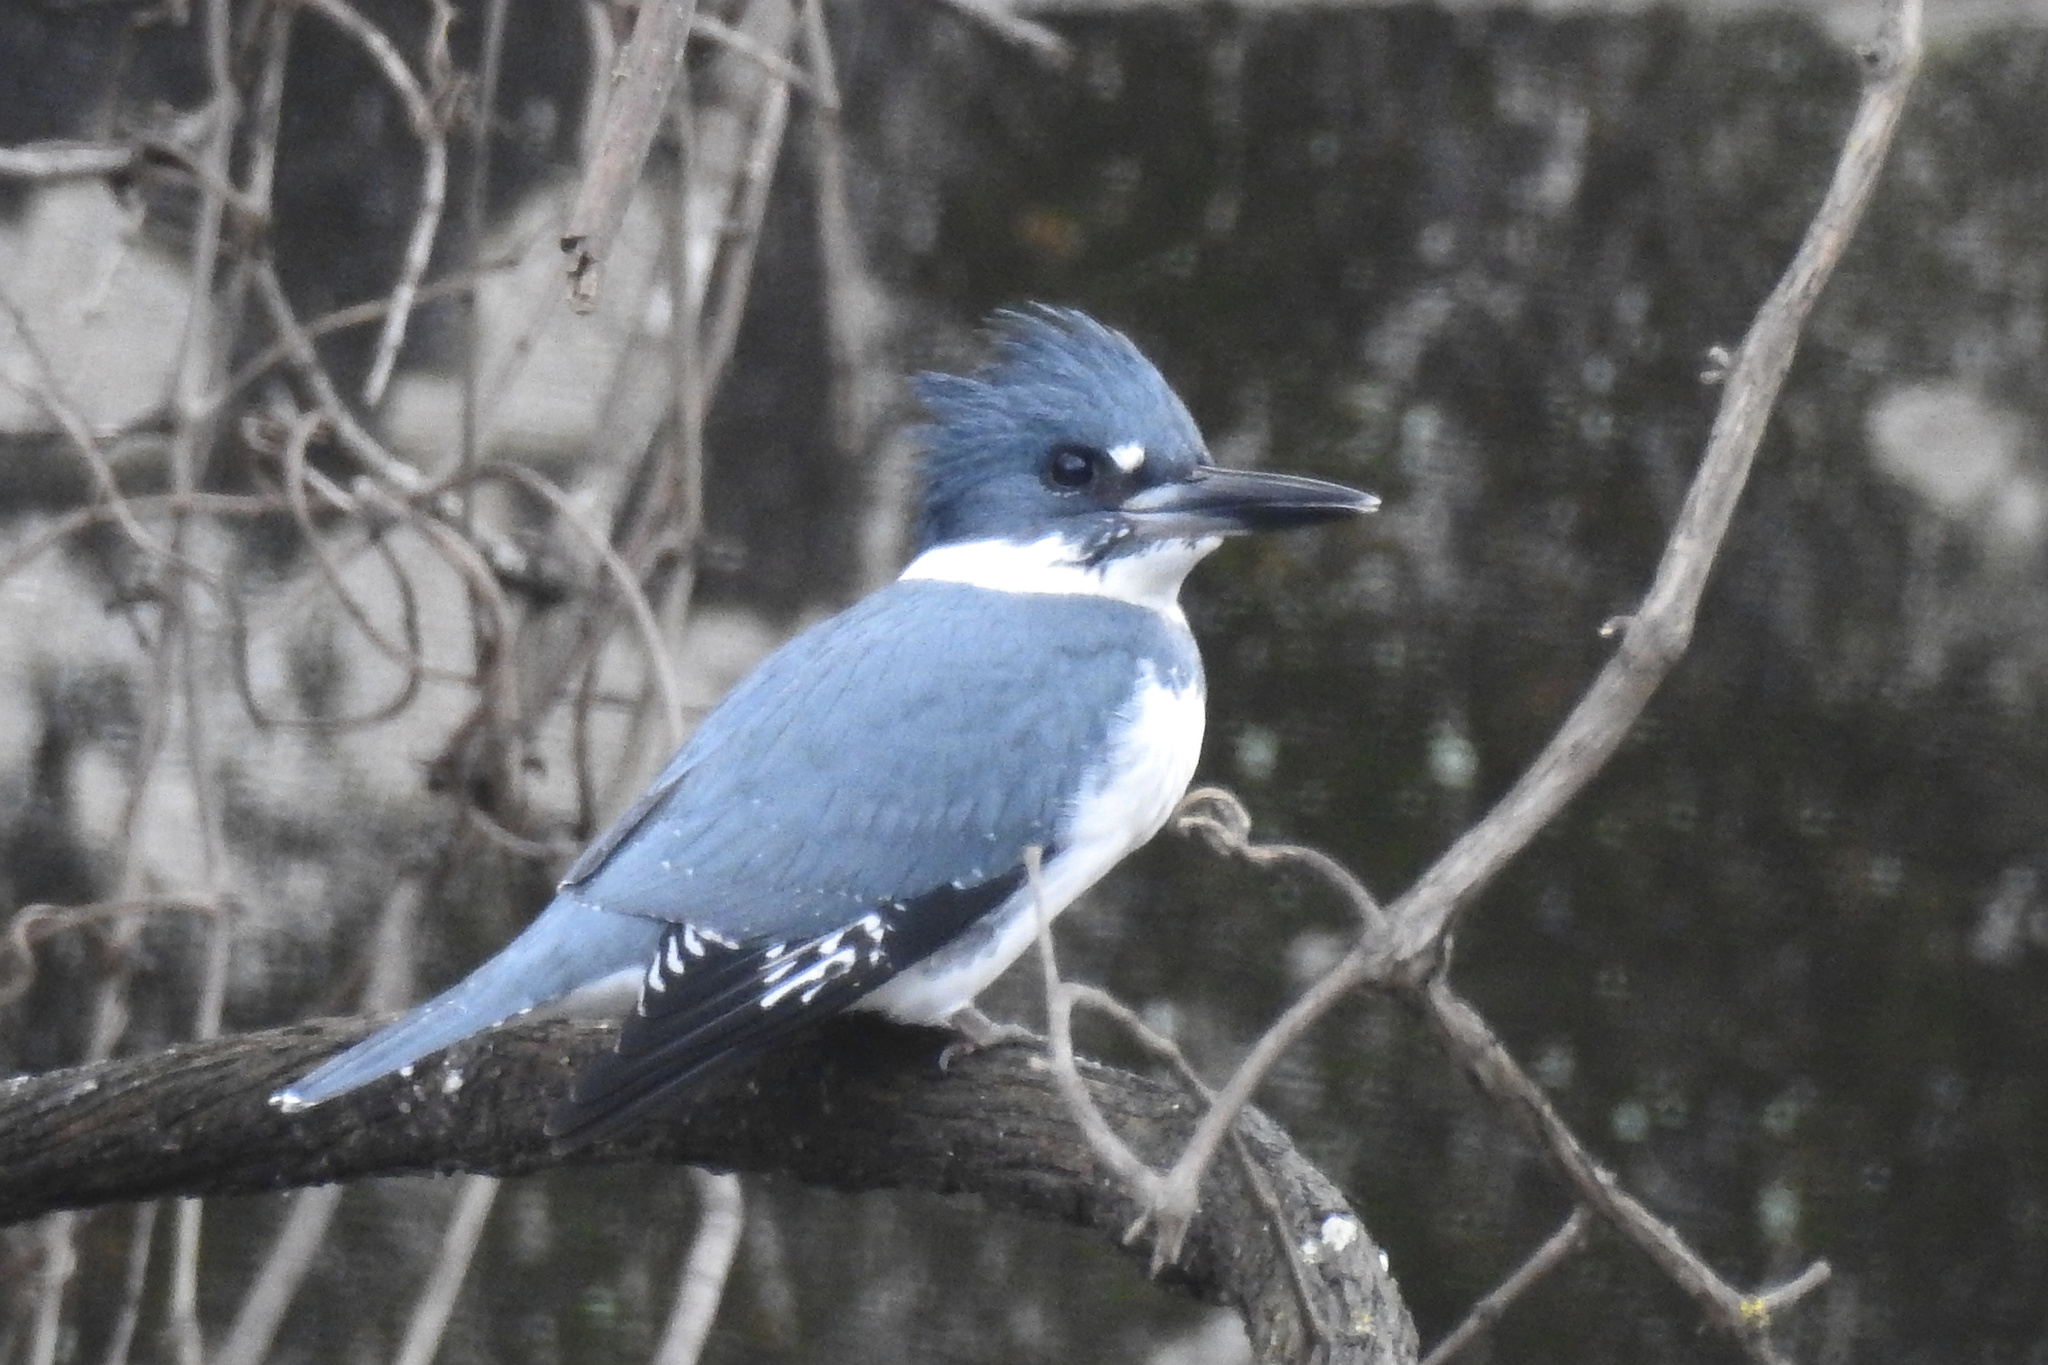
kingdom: Animalia
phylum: Chordata
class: Aves
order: Coraciiformes
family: Alcedinidae
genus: Megaceryle
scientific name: Megaceryle alcyon
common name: Belted kingfisher
